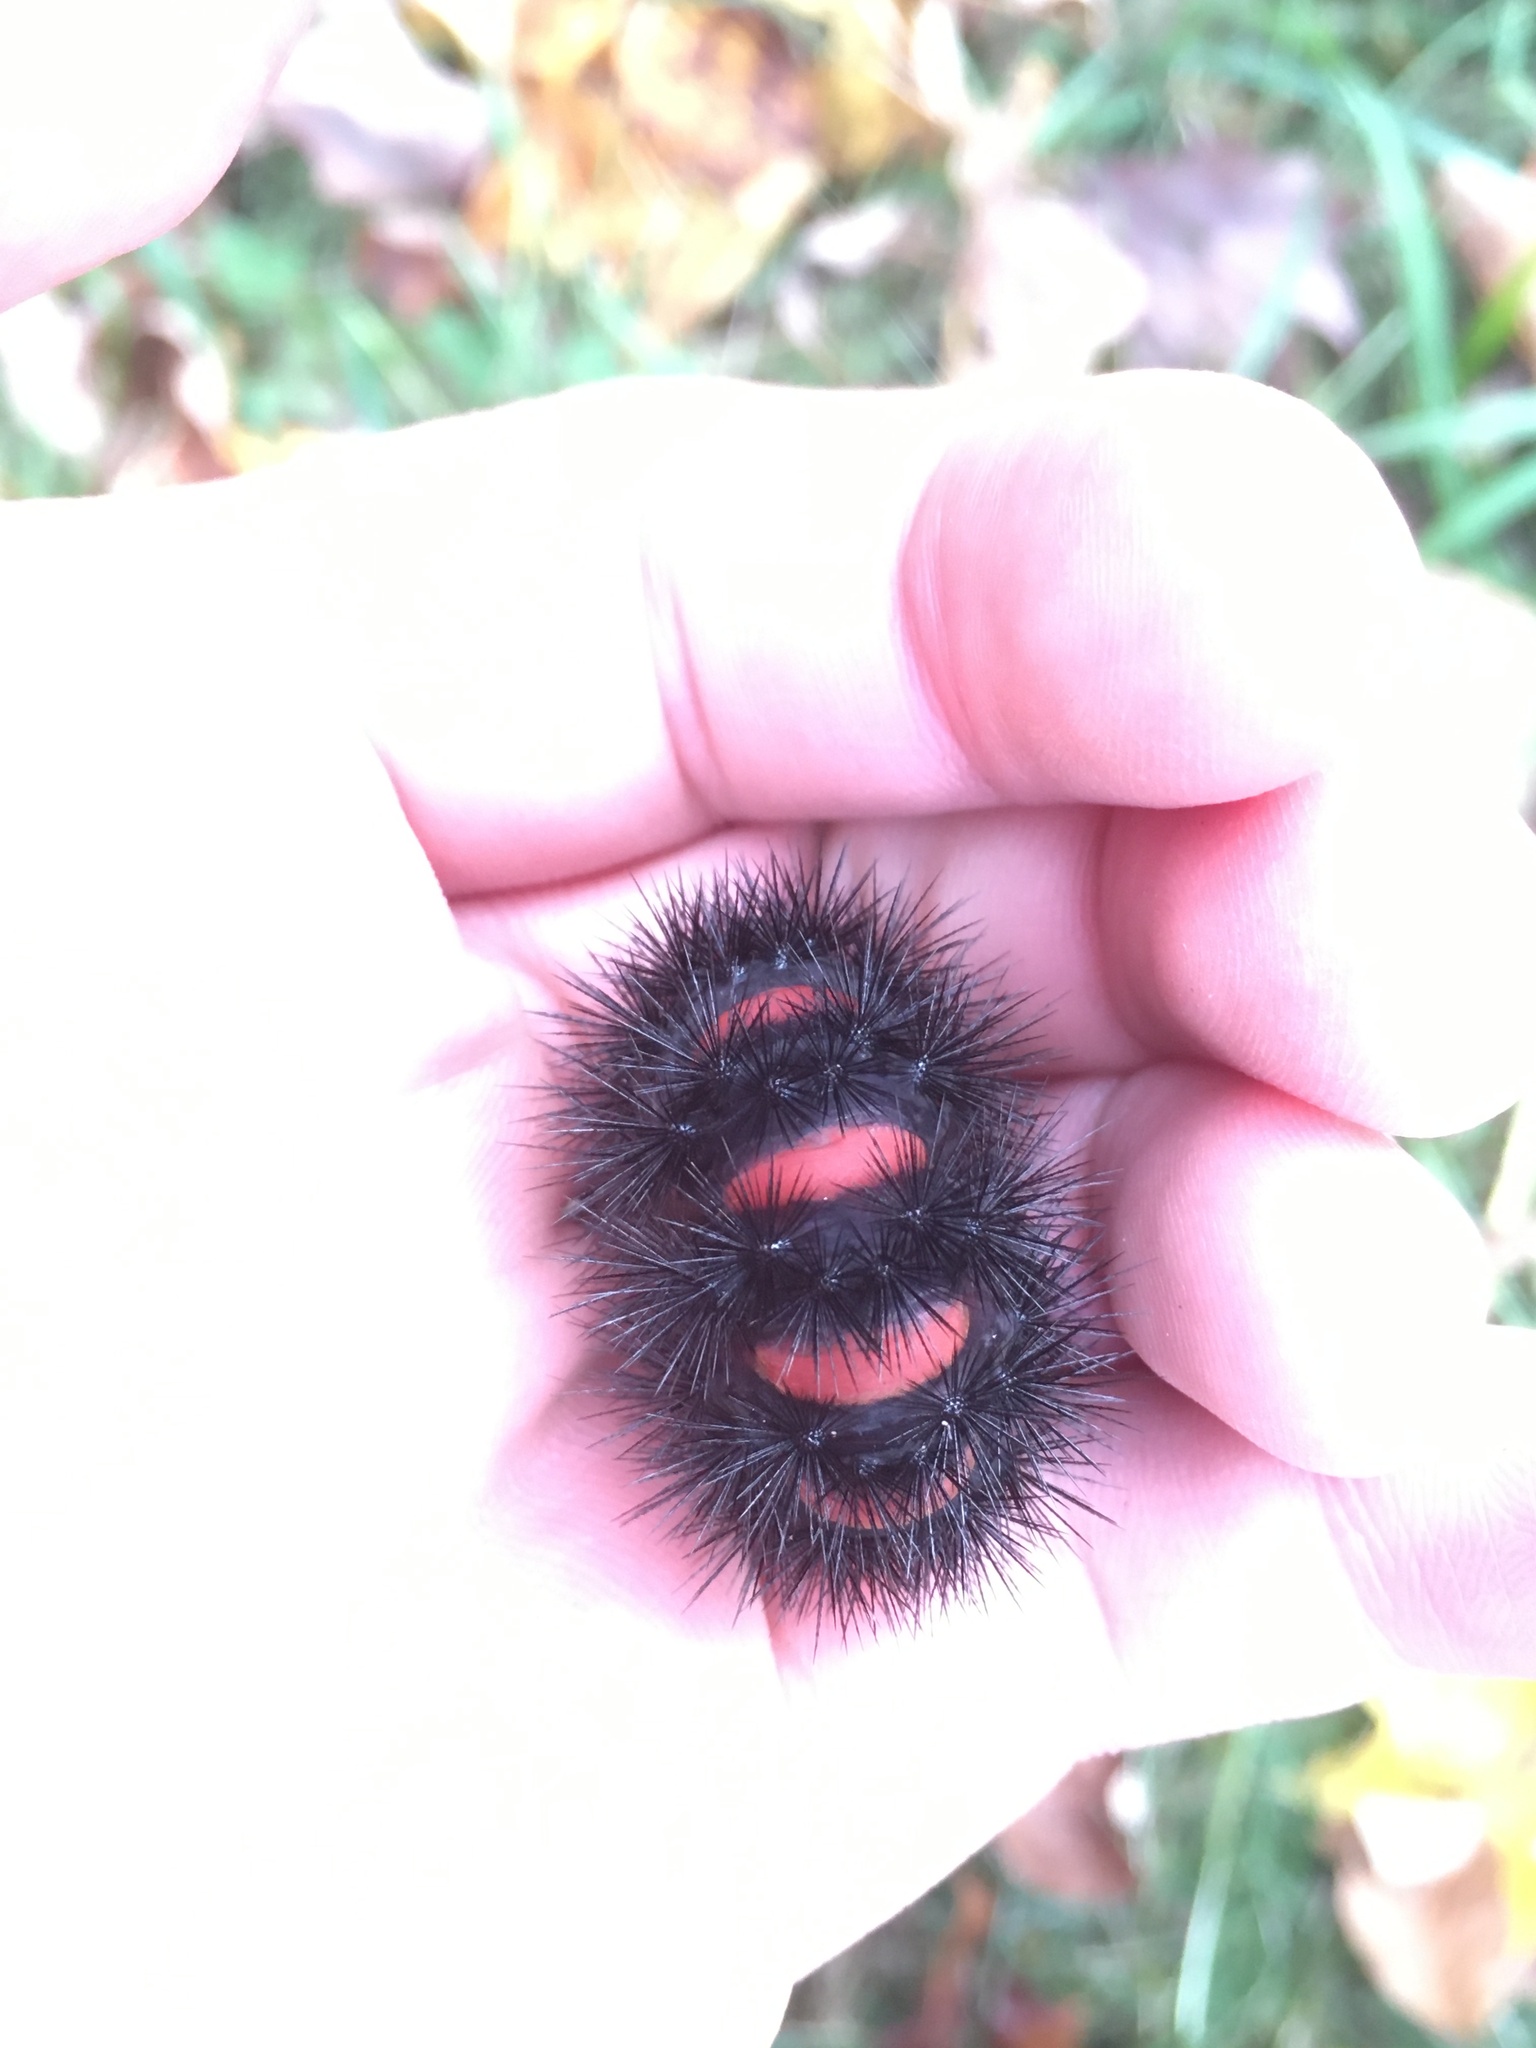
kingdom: Animalia
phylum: Arthropoda
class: Insecta
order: Lepidoptera
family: Erebidae
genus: Hypercompe
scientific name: Hypercompe scribonia
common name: Giant leopard moth
